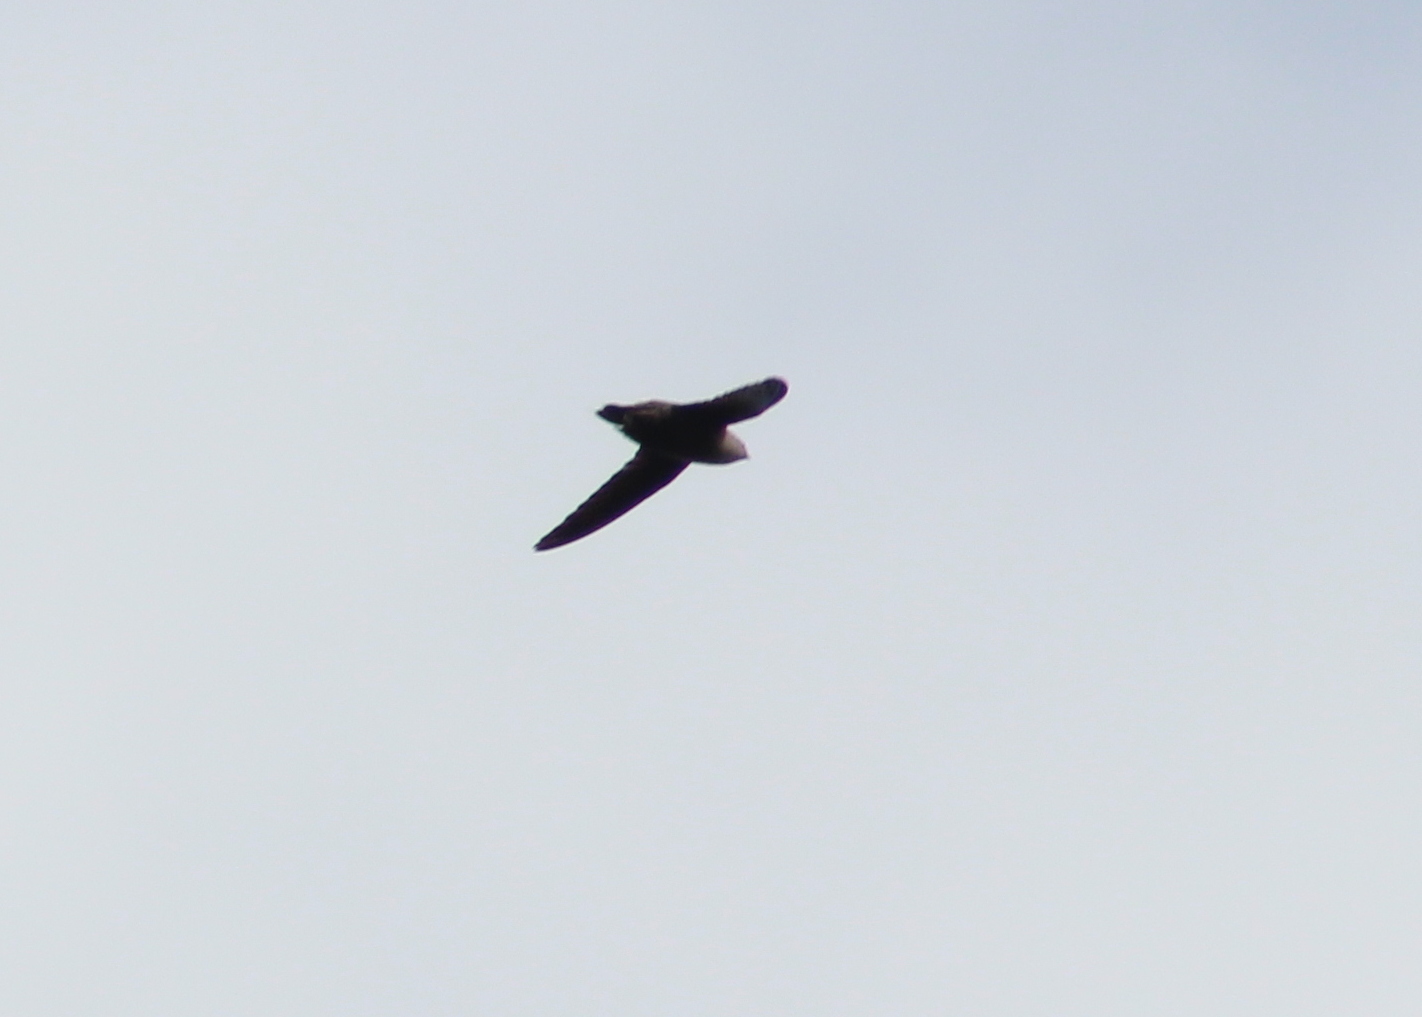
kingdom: Animalia
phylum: Chordata
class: Aves
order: Apodiformes
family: Apodidae
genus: Chaetura
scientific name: Chaetura pelagica
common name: Chimney swift
